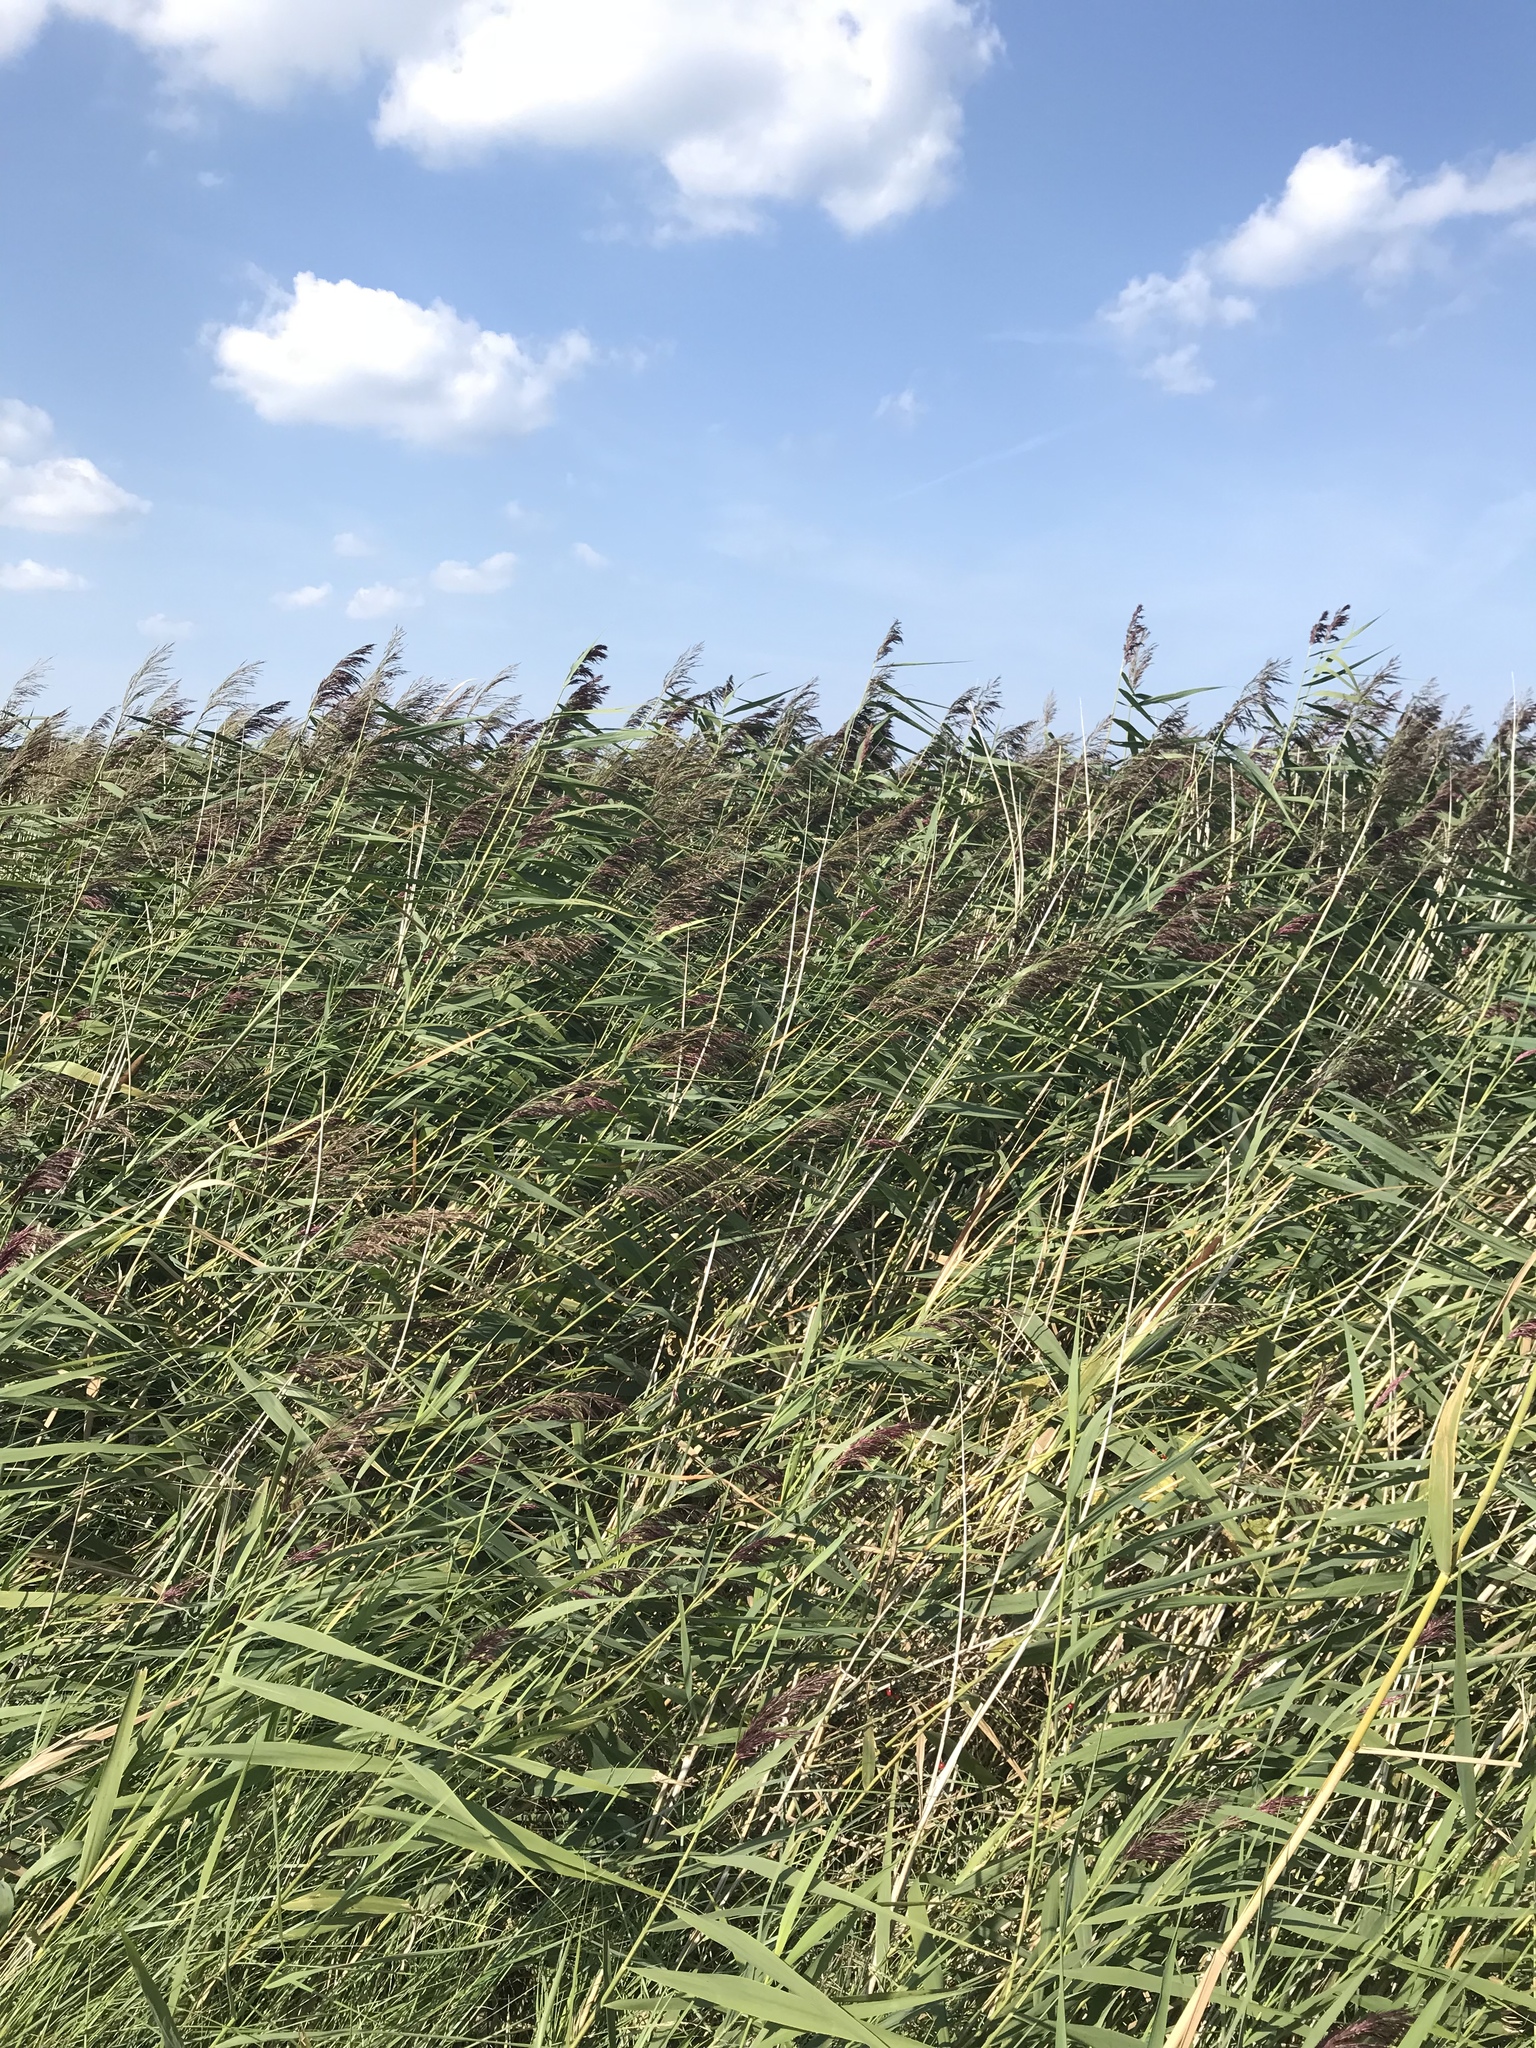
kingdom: Plantae
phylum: Tracheophyta
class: Liliopsida
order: Poales
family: Poaceae
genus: Phragmites
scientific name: Phragmites australis
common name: Common reed
